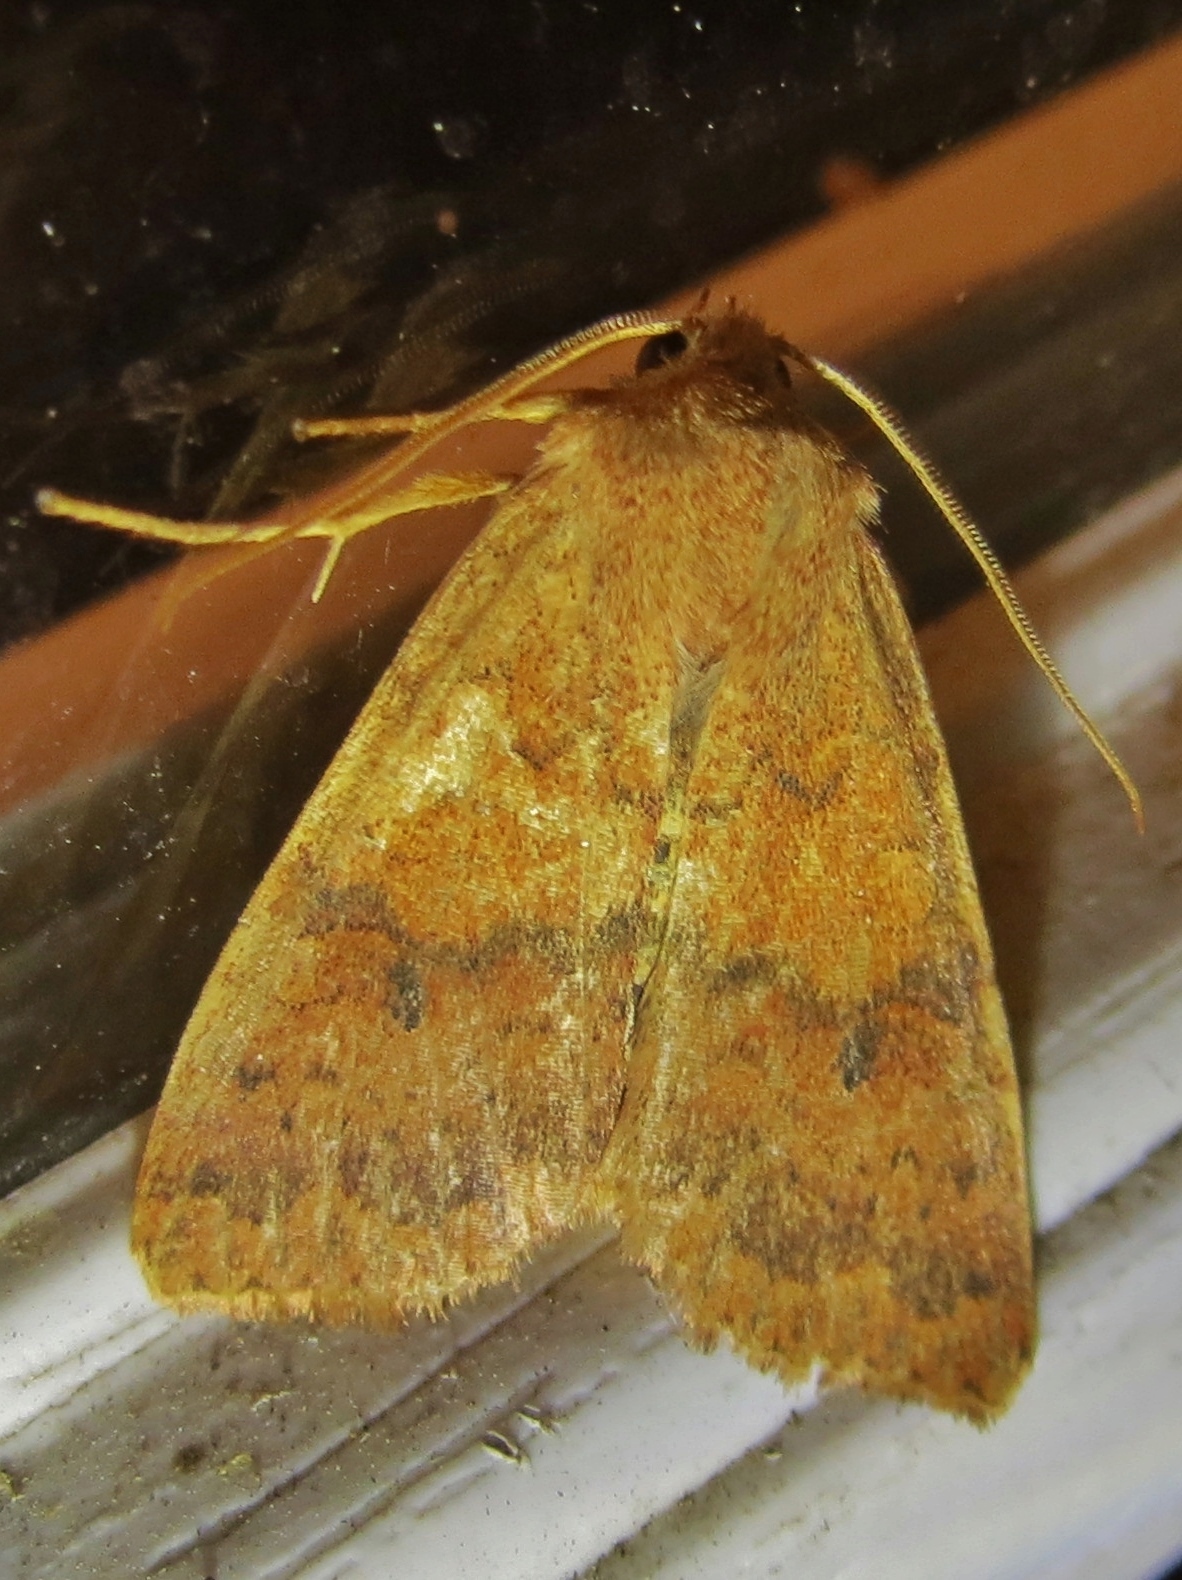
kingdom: Animalia
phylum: Arthropoda
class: Insecta
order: Lepidoptera
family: Noctuidae
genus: Agrochola
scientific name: Agrochola bicolorago
